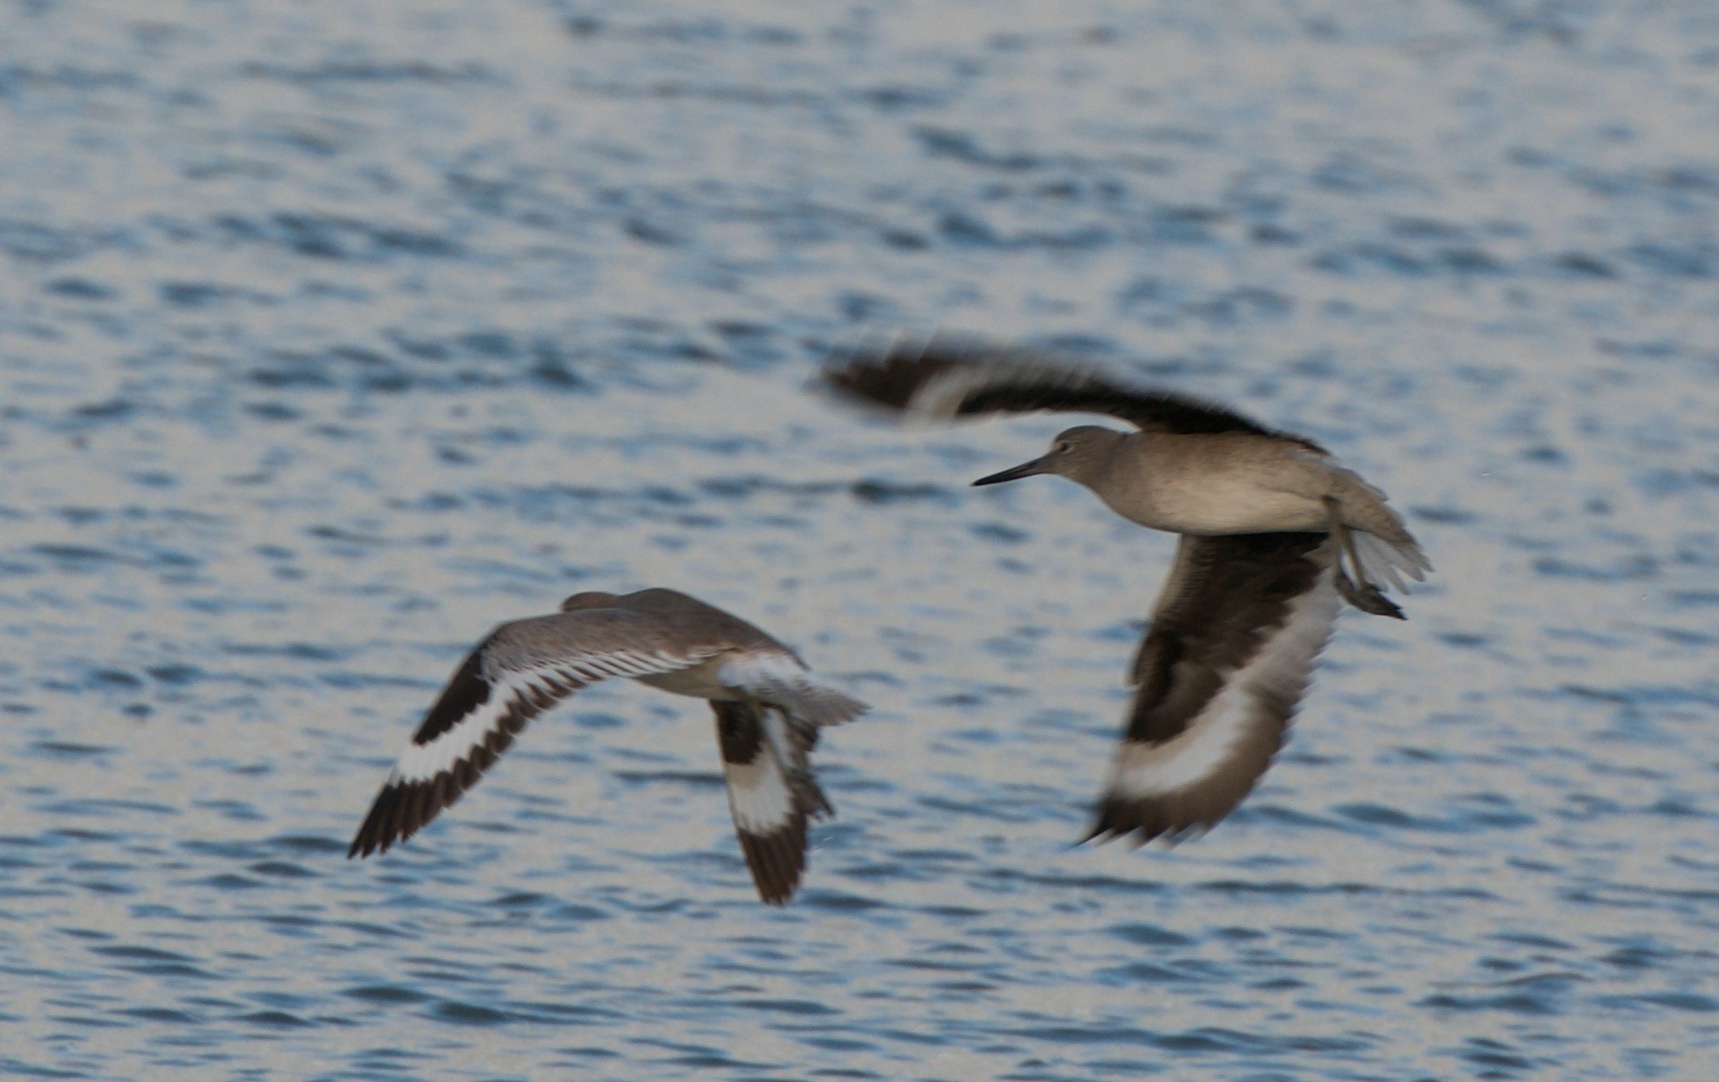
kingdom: Animalia
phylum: Chordata
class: Aves
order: Charadriiformes
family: Scolopacidae
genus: Tringa
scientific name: Tringa semipalmata
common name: Willet
